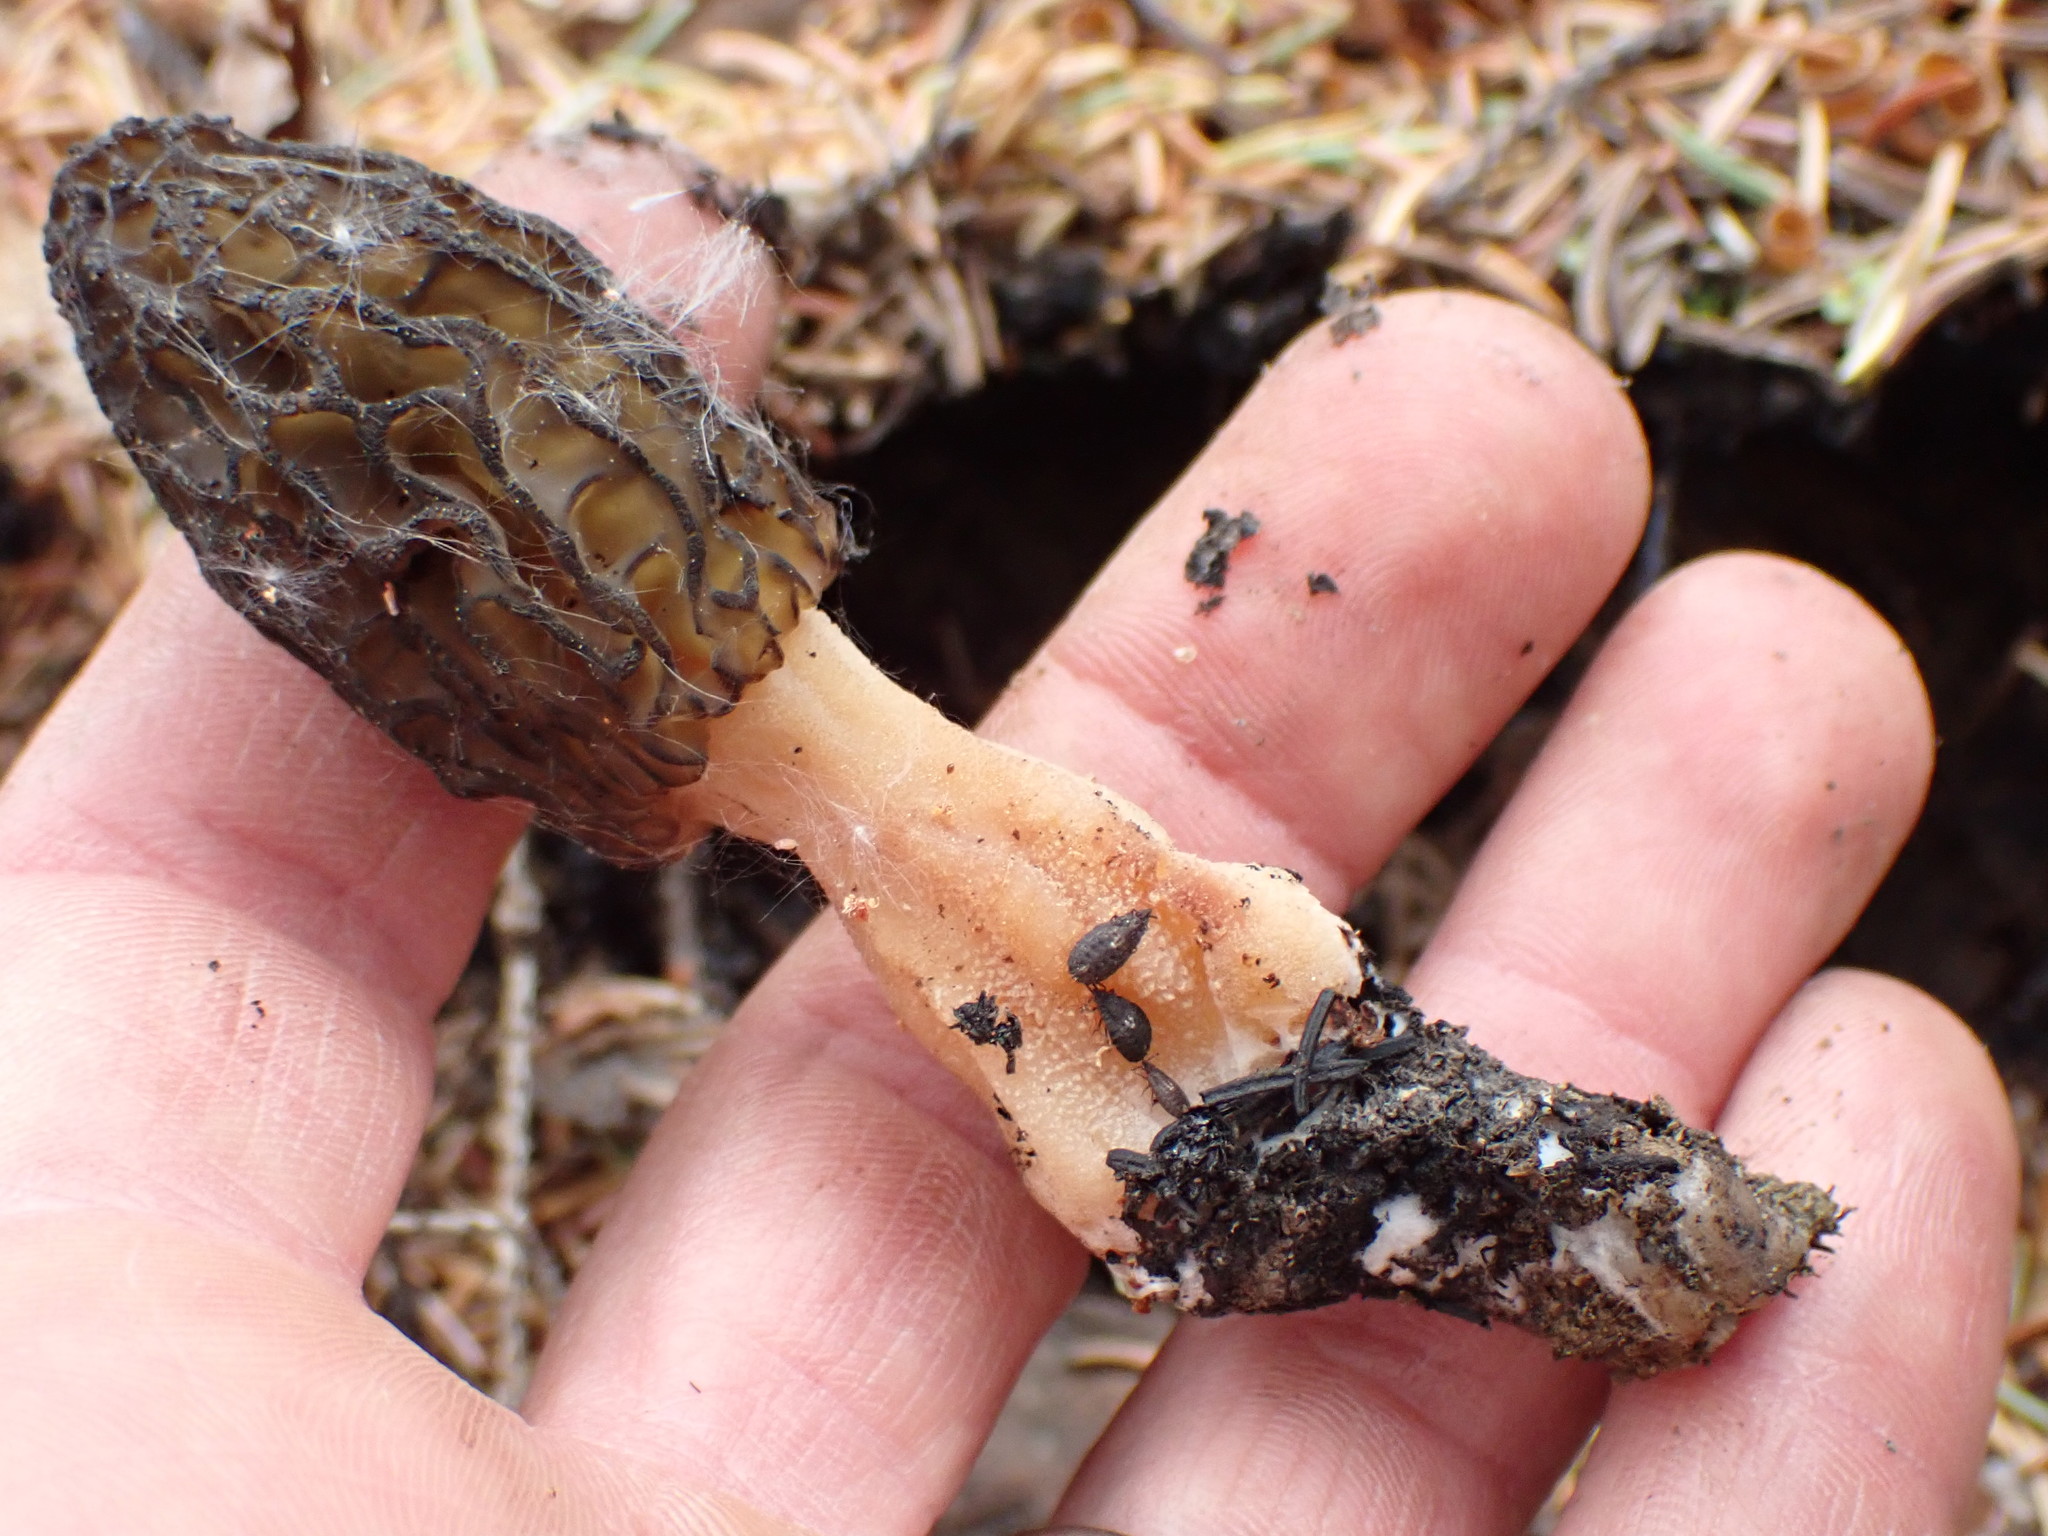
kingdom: Fungi
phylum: Ascomycota
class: Pezizomycetes
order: Pezizales
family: Morchellaceae
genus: Morchella
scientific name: Morchella eximia
